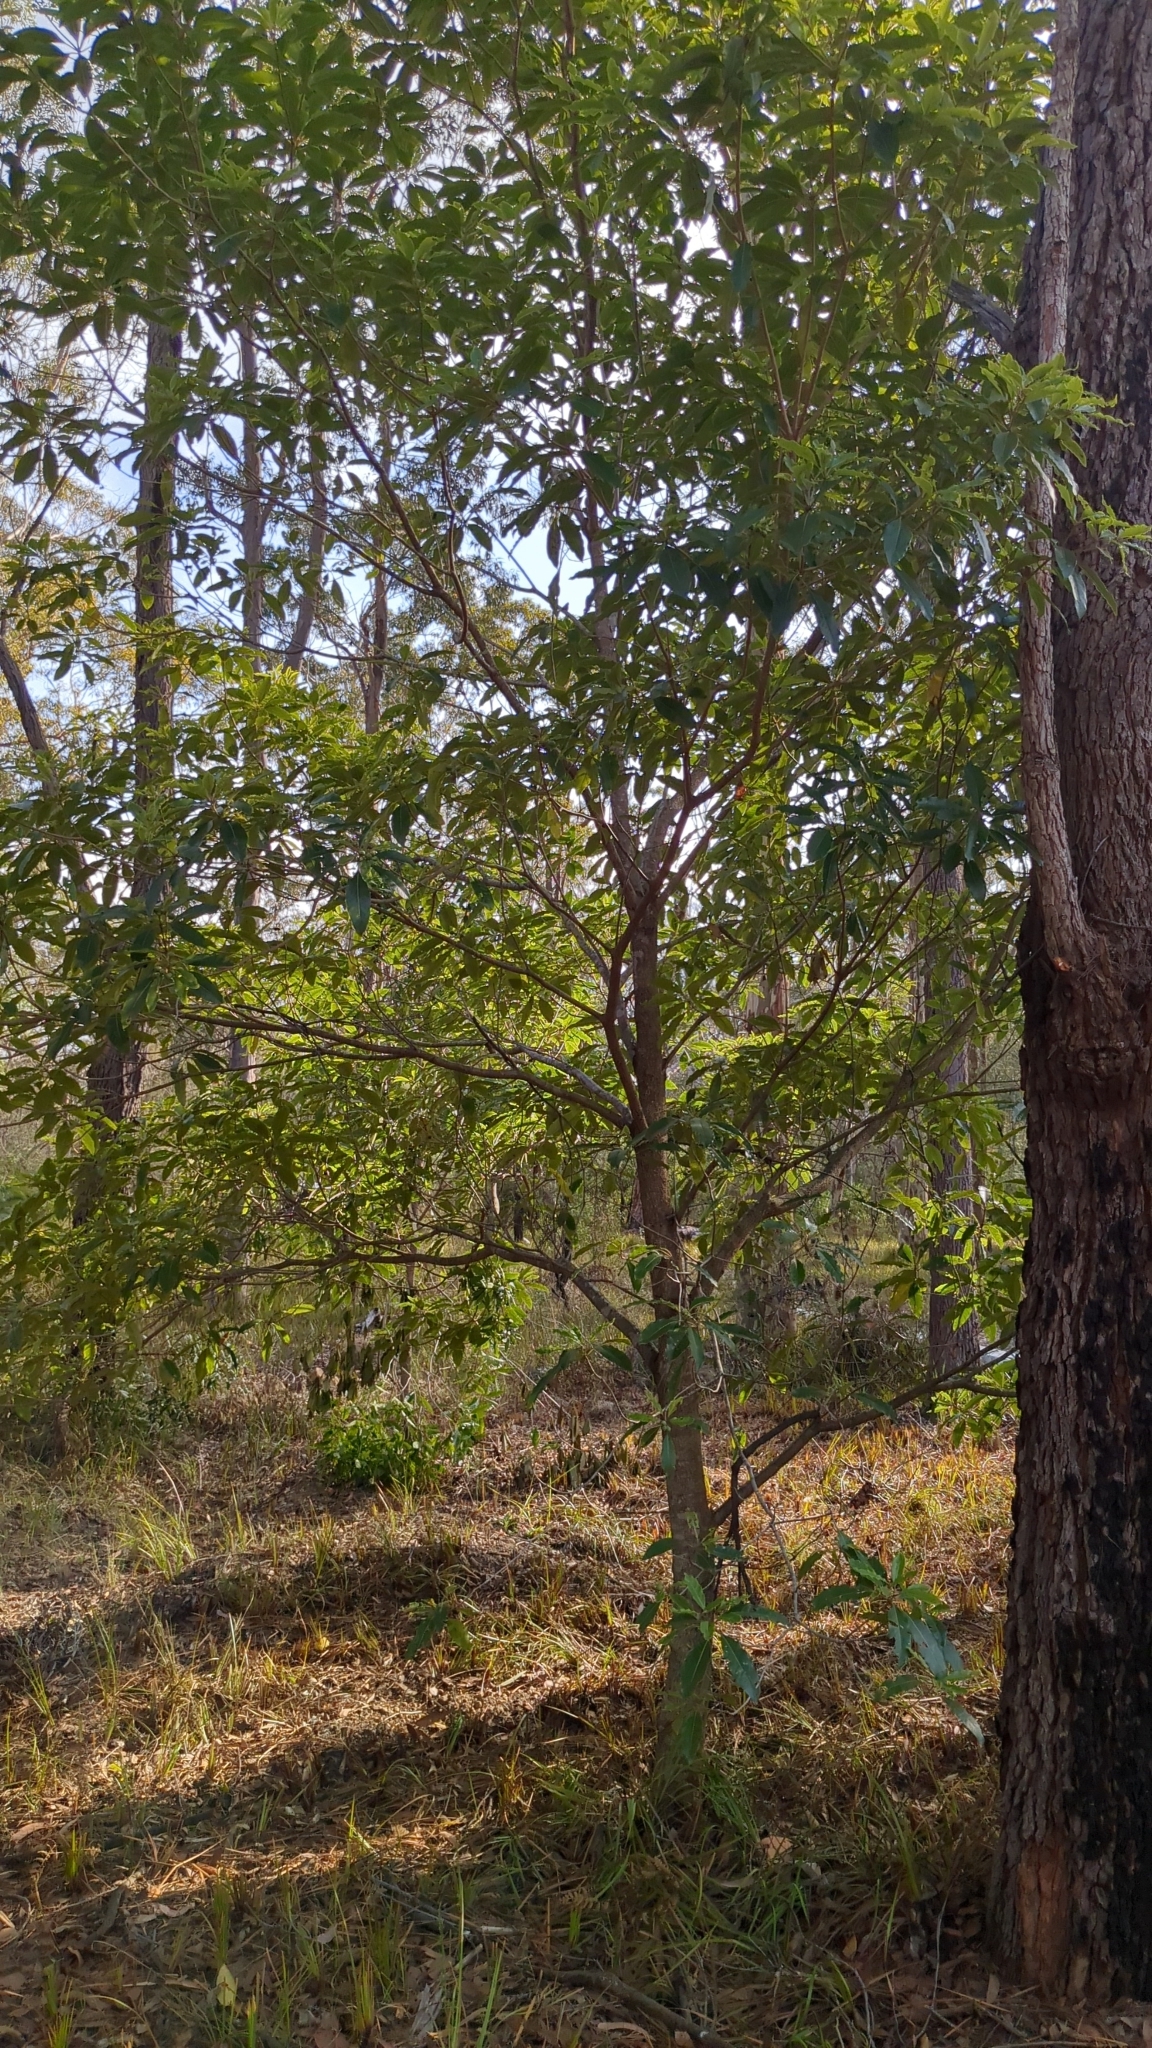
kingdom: Plantae
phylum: Tracheophyta
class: Magnoliopsida
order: Apiales
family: Pittosporaceae
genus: Pittosporum
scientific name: Pittosporum undulatum
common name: Australian cheesewood
